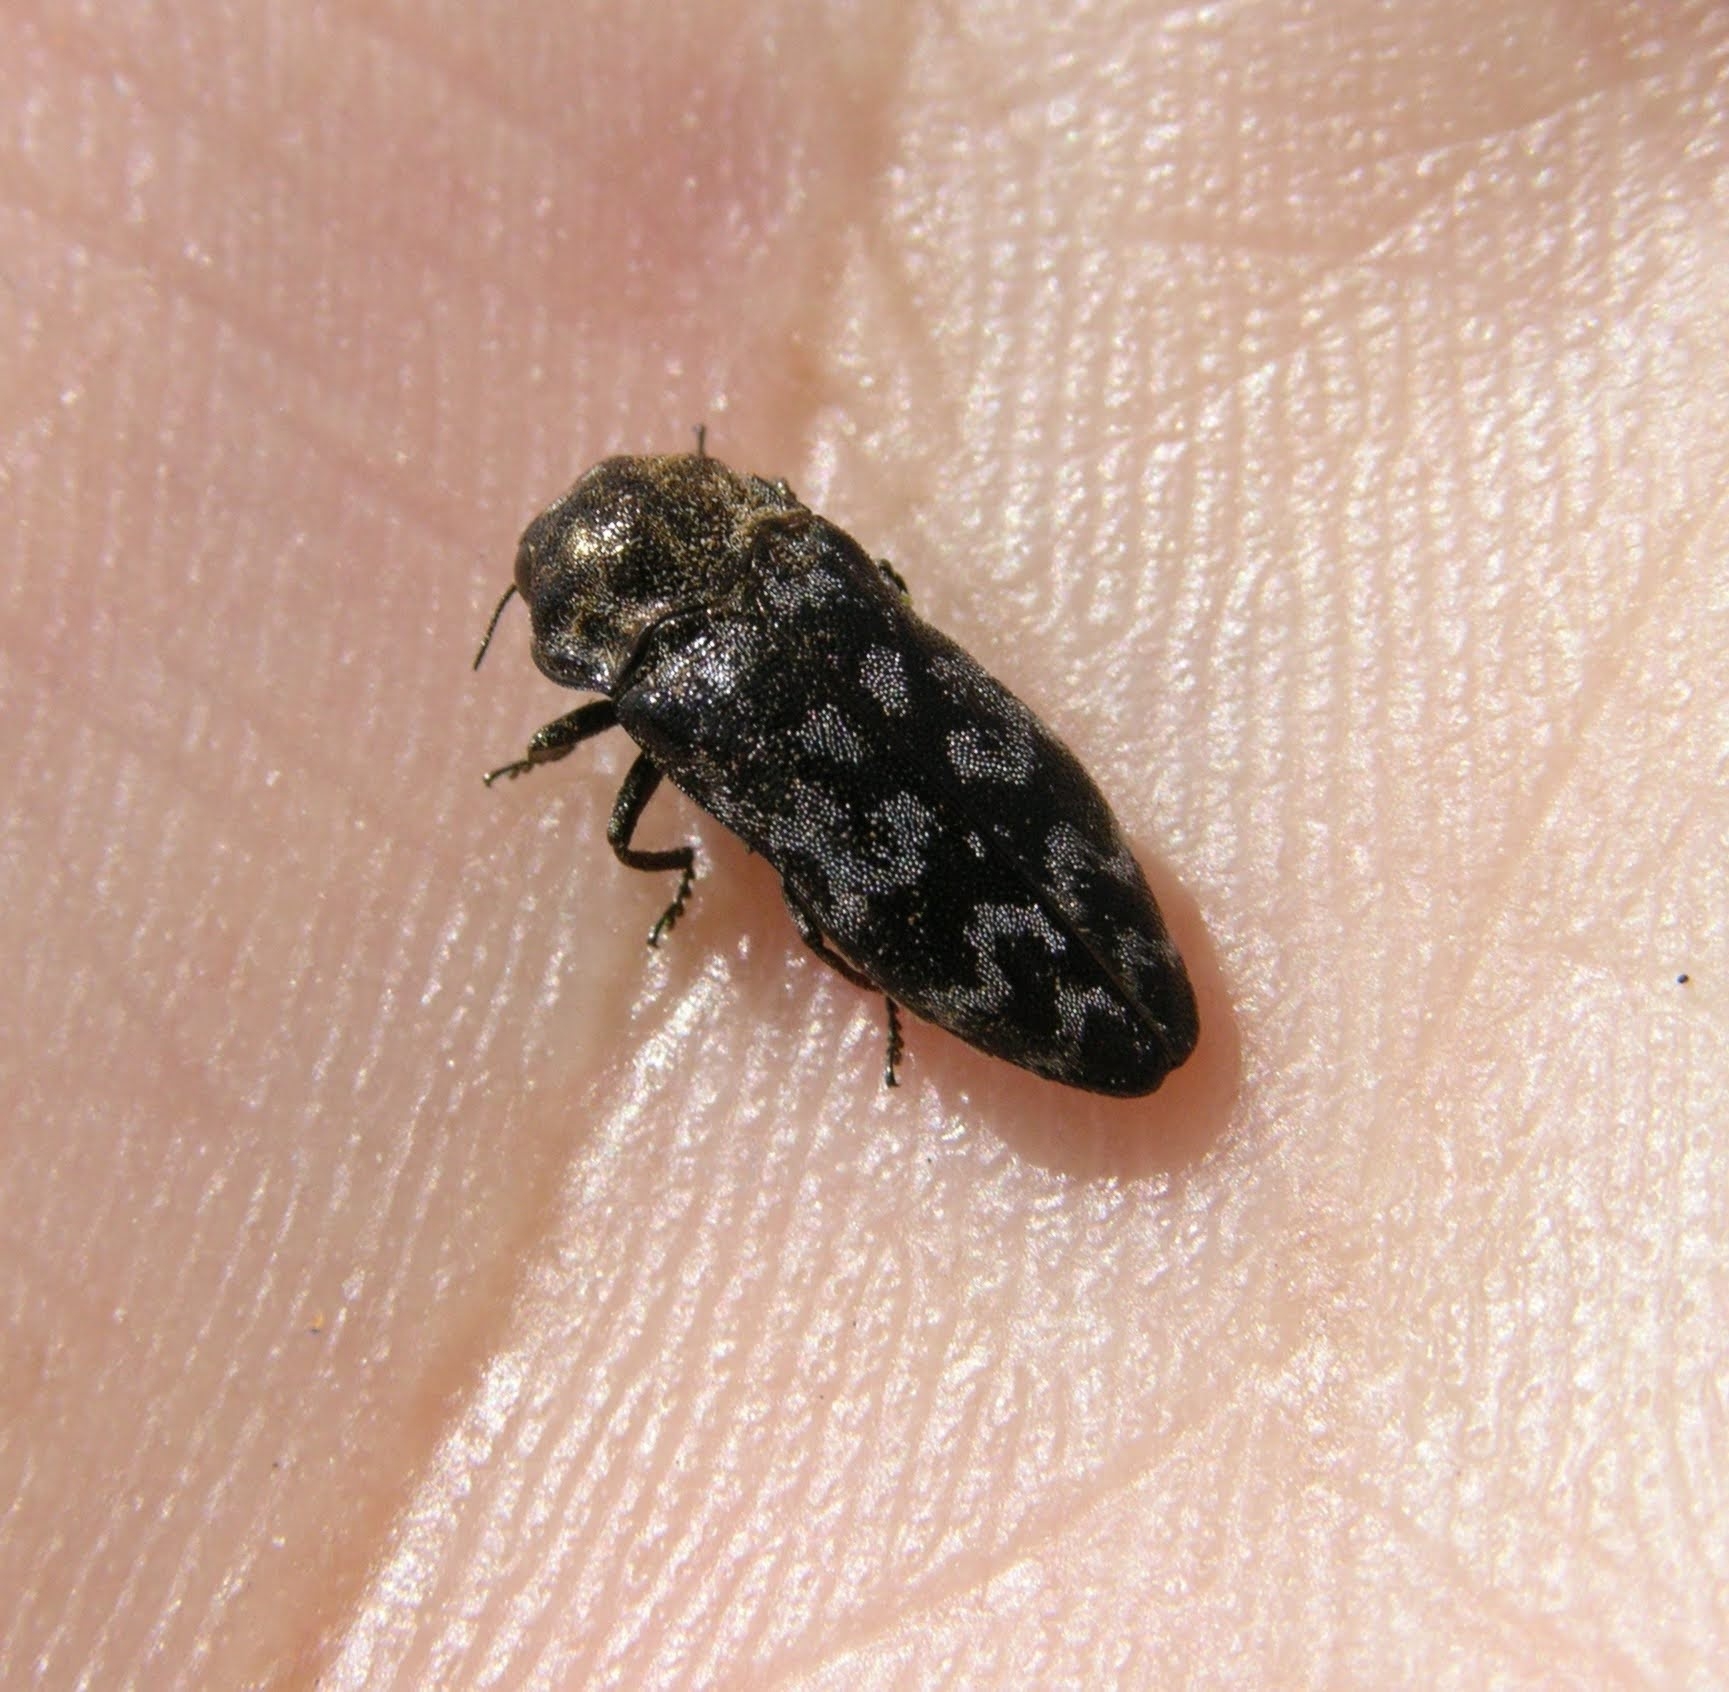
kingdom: Animalia
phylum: Arthropoda
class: Insecta
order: Coleoptera
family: Buprestidae
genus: Coraebus
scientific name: Coraebus rubi
